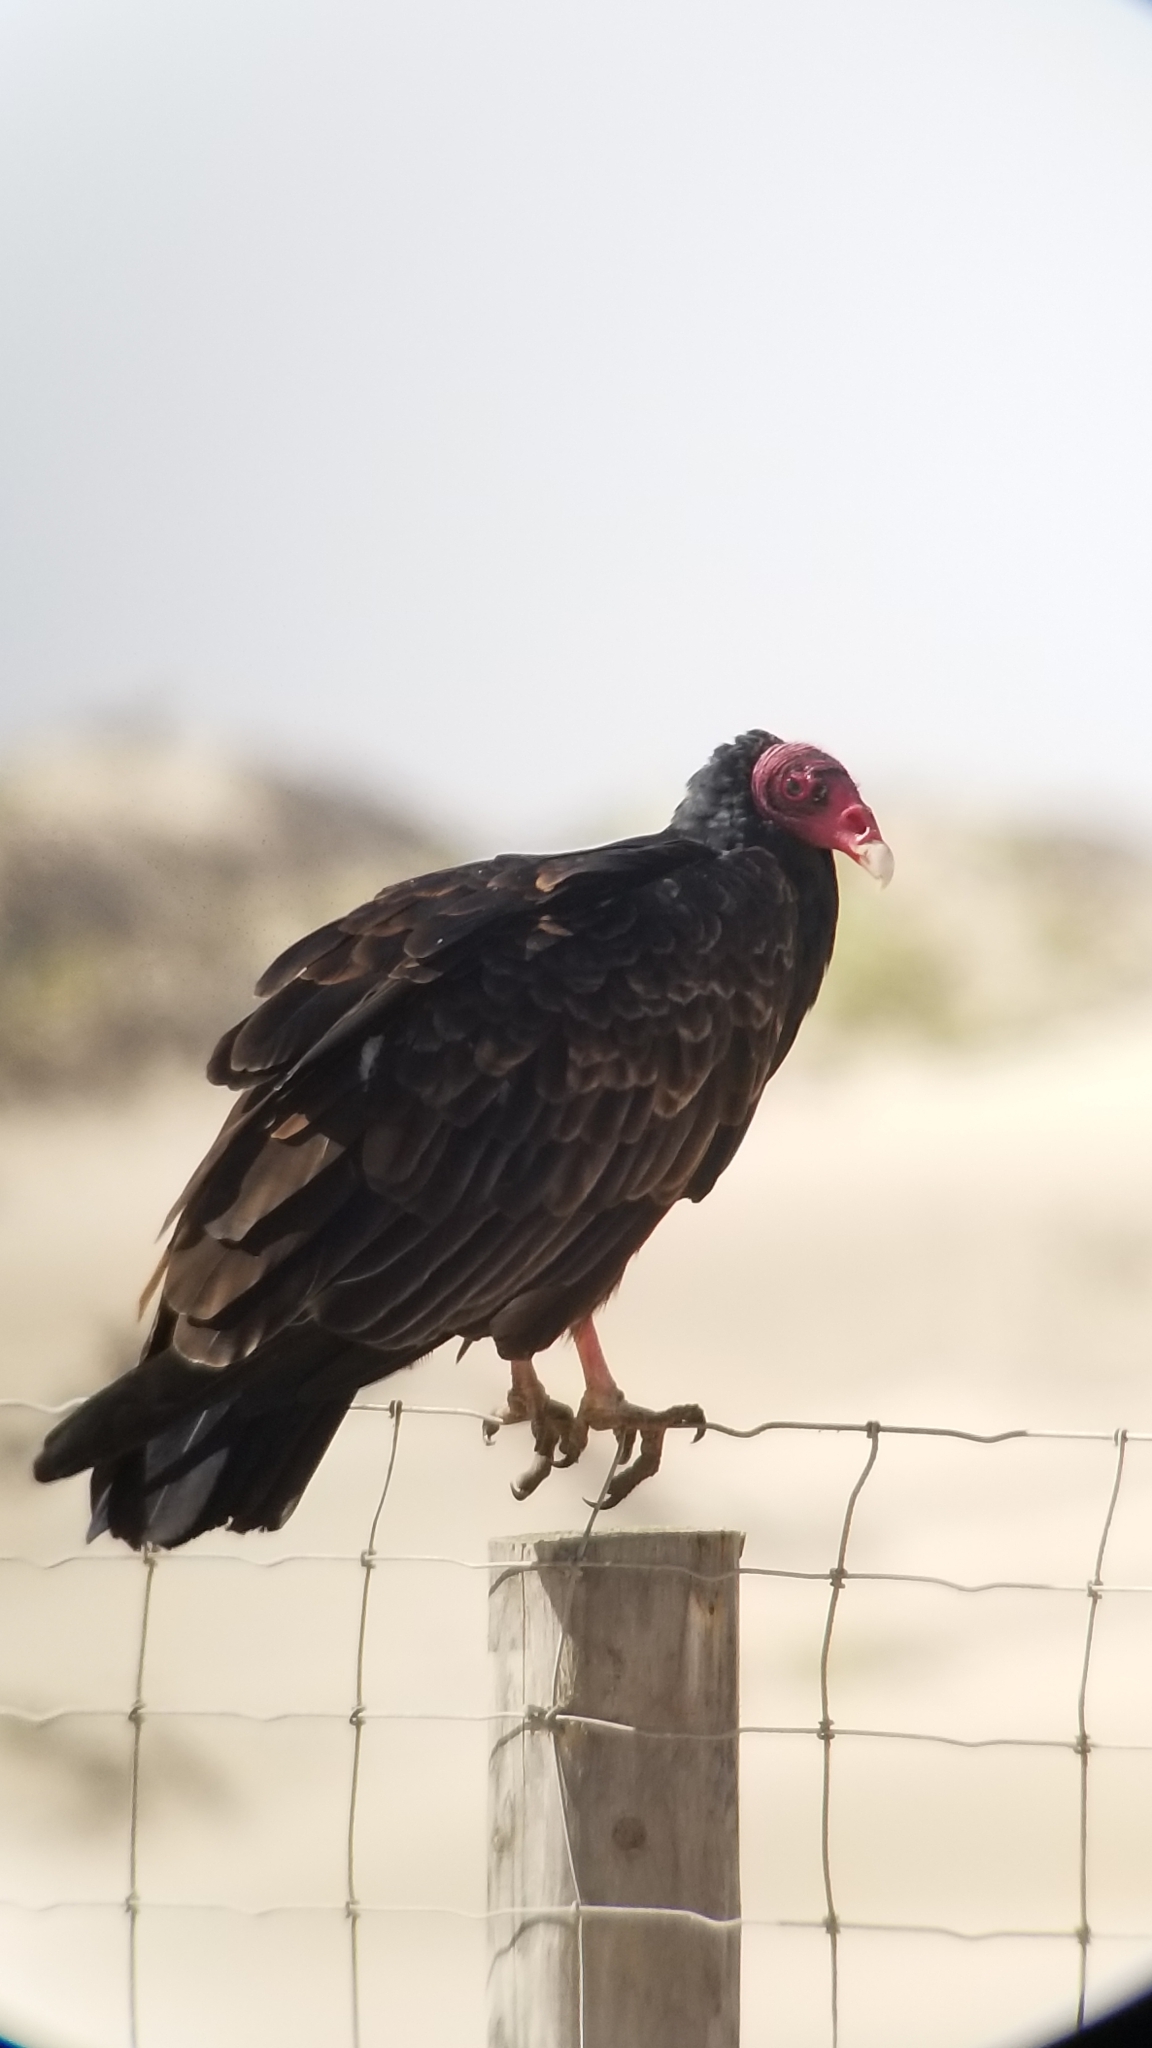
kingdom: Animalia
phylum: Chordata
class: Aves
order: Accipitriformes
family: Cathartidae
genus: Cathartes
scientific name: Cathartes aura
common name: Turkey vulture
